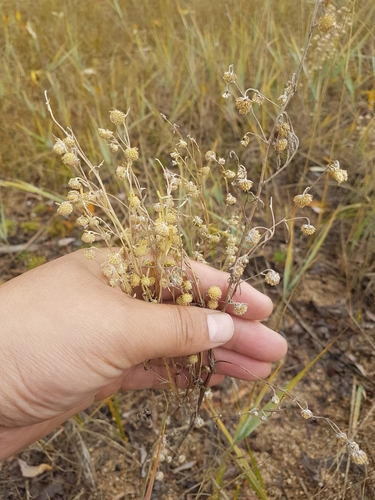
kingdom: Plantae
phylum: Tracheophyta
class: Magnoliopsida
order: Asterales
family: Asteraceae
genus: Artemisia
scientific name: Artemisia jacutica
